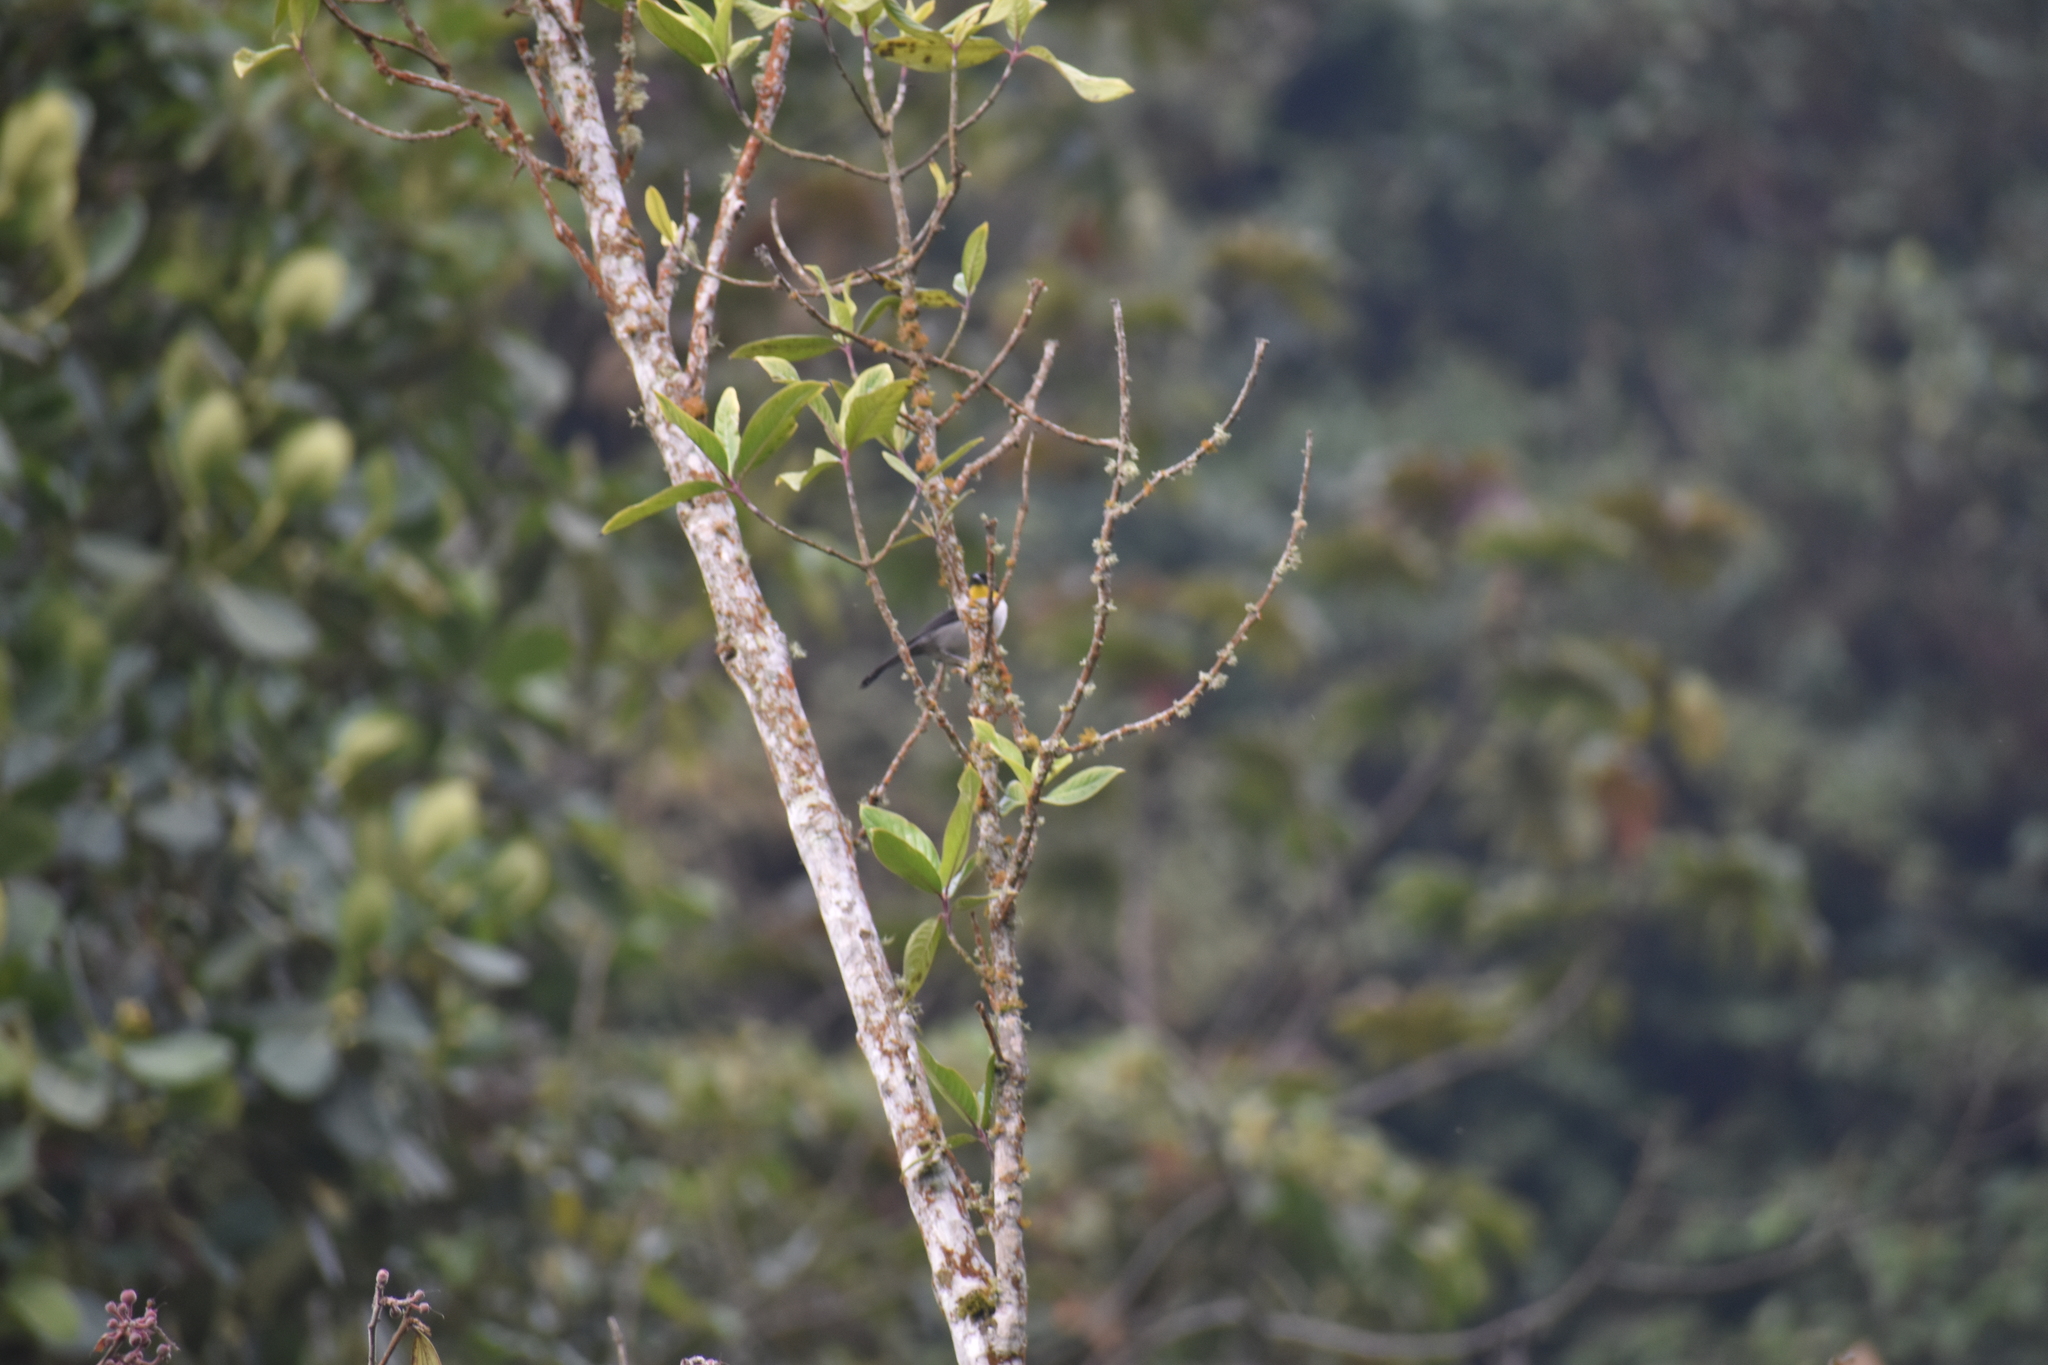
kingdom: Animalia
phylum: Chordata
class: Aves
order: Passeriformes
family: Passerellidae
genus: Atlapetes
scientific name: Atlapetes albinucha
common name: White-naped brush-finch
